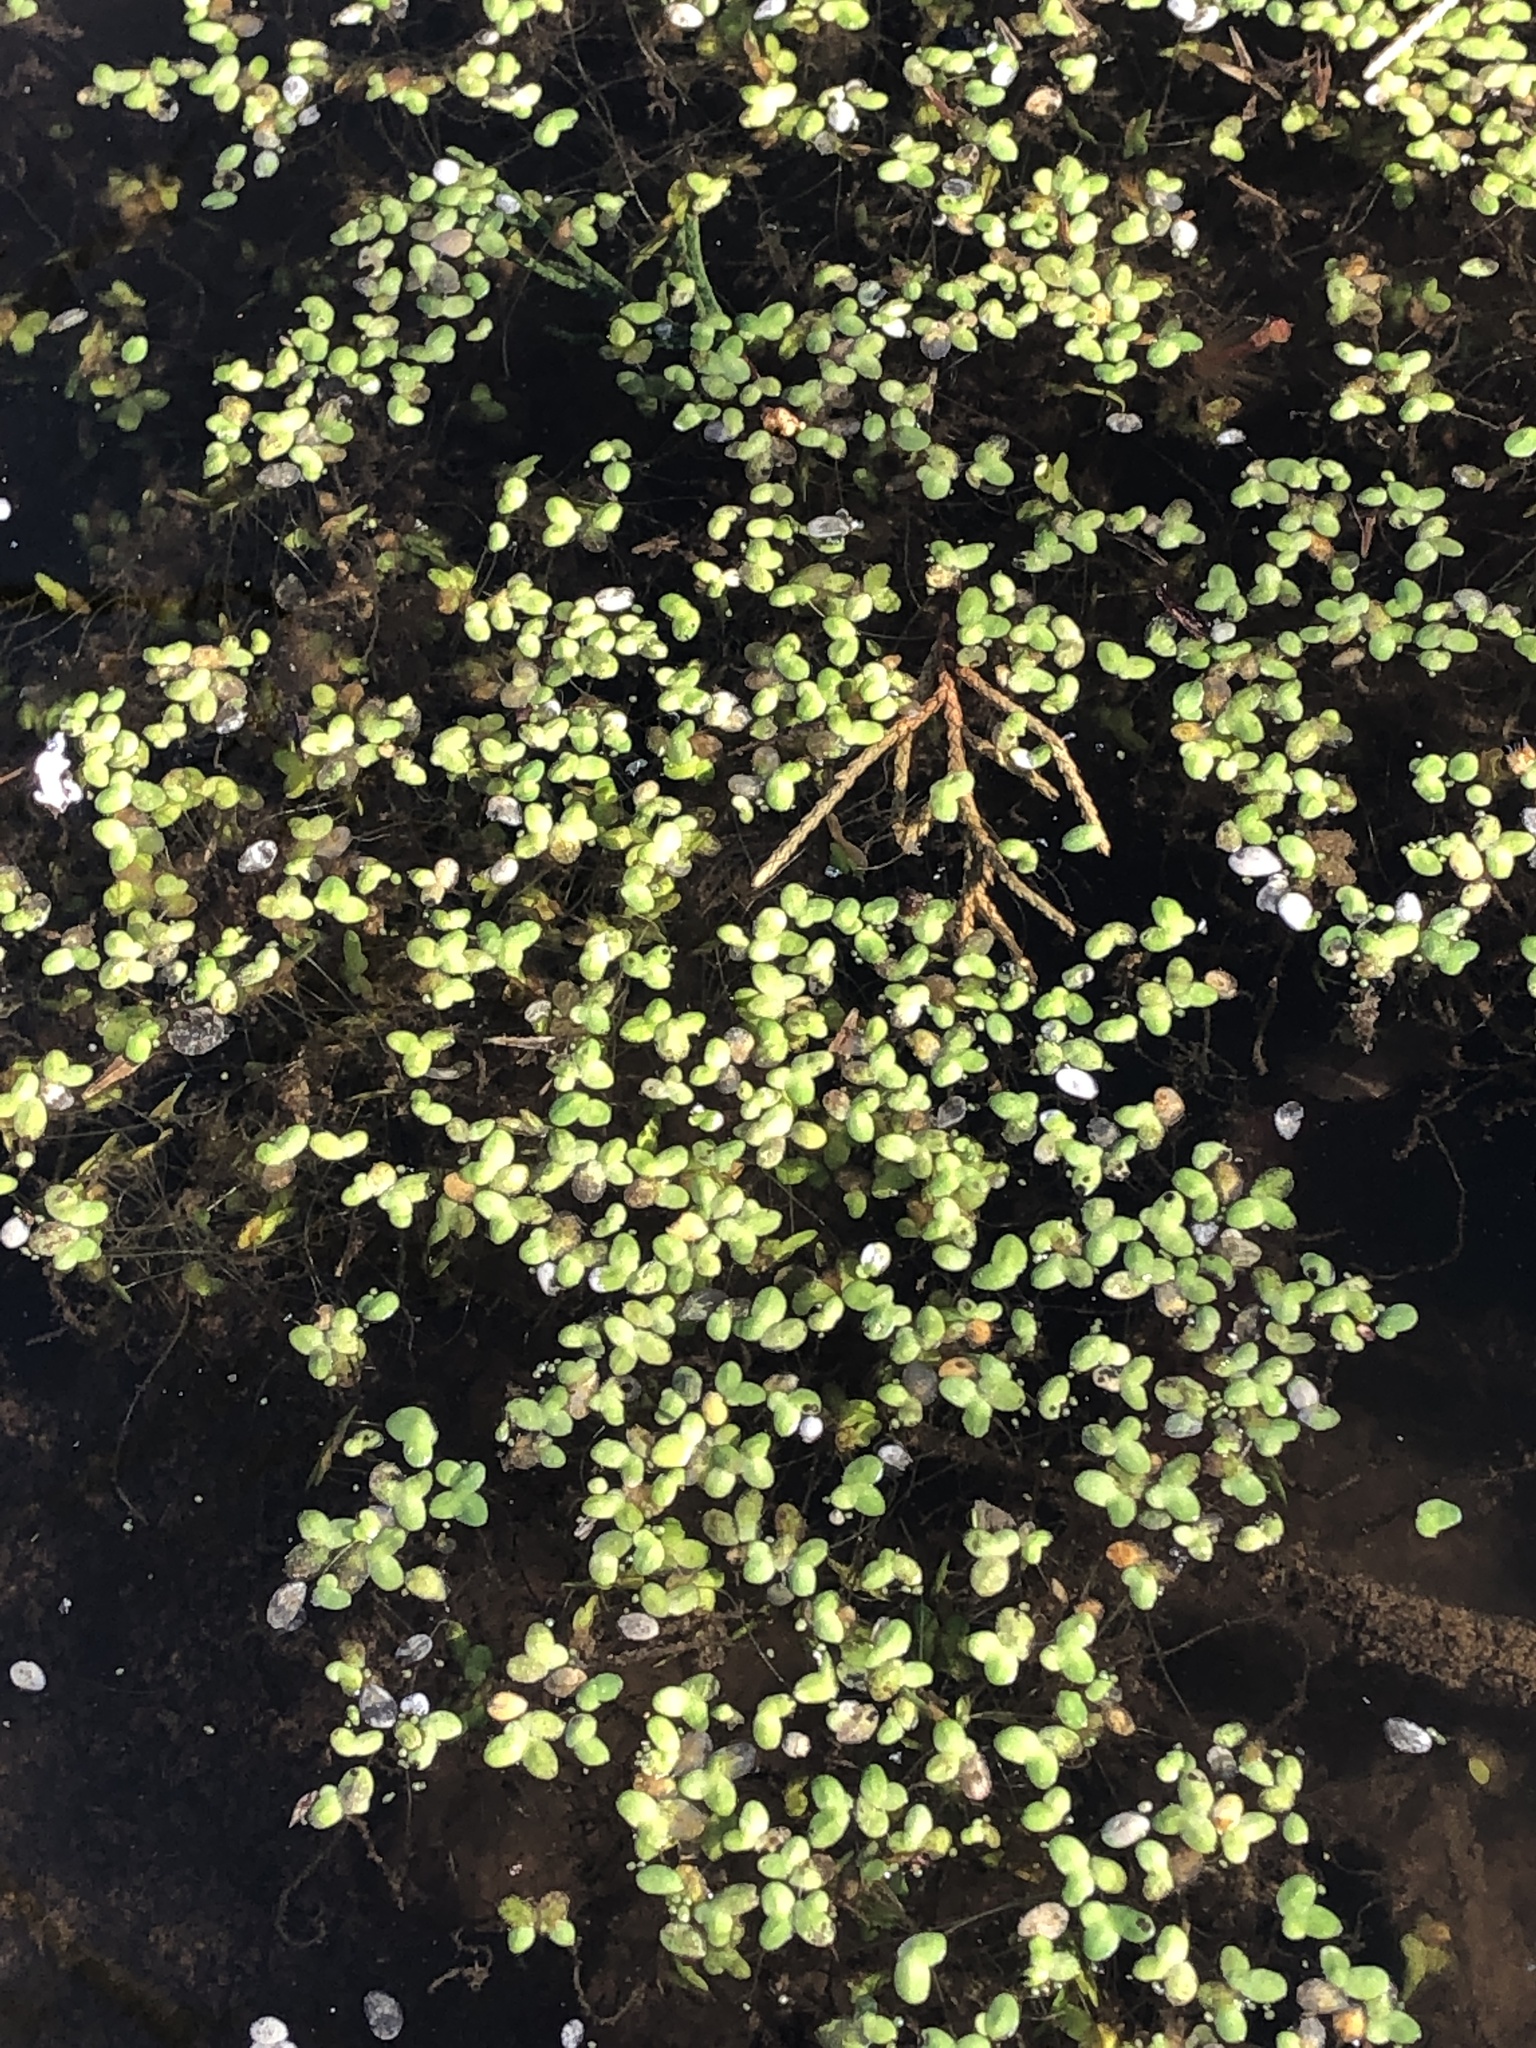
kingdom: Plantae
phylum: Tracheophyta
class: Liliopsida
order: Alismatales
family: Araceae
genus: Lemna
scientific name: Lemna minor
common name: Common duckweed
